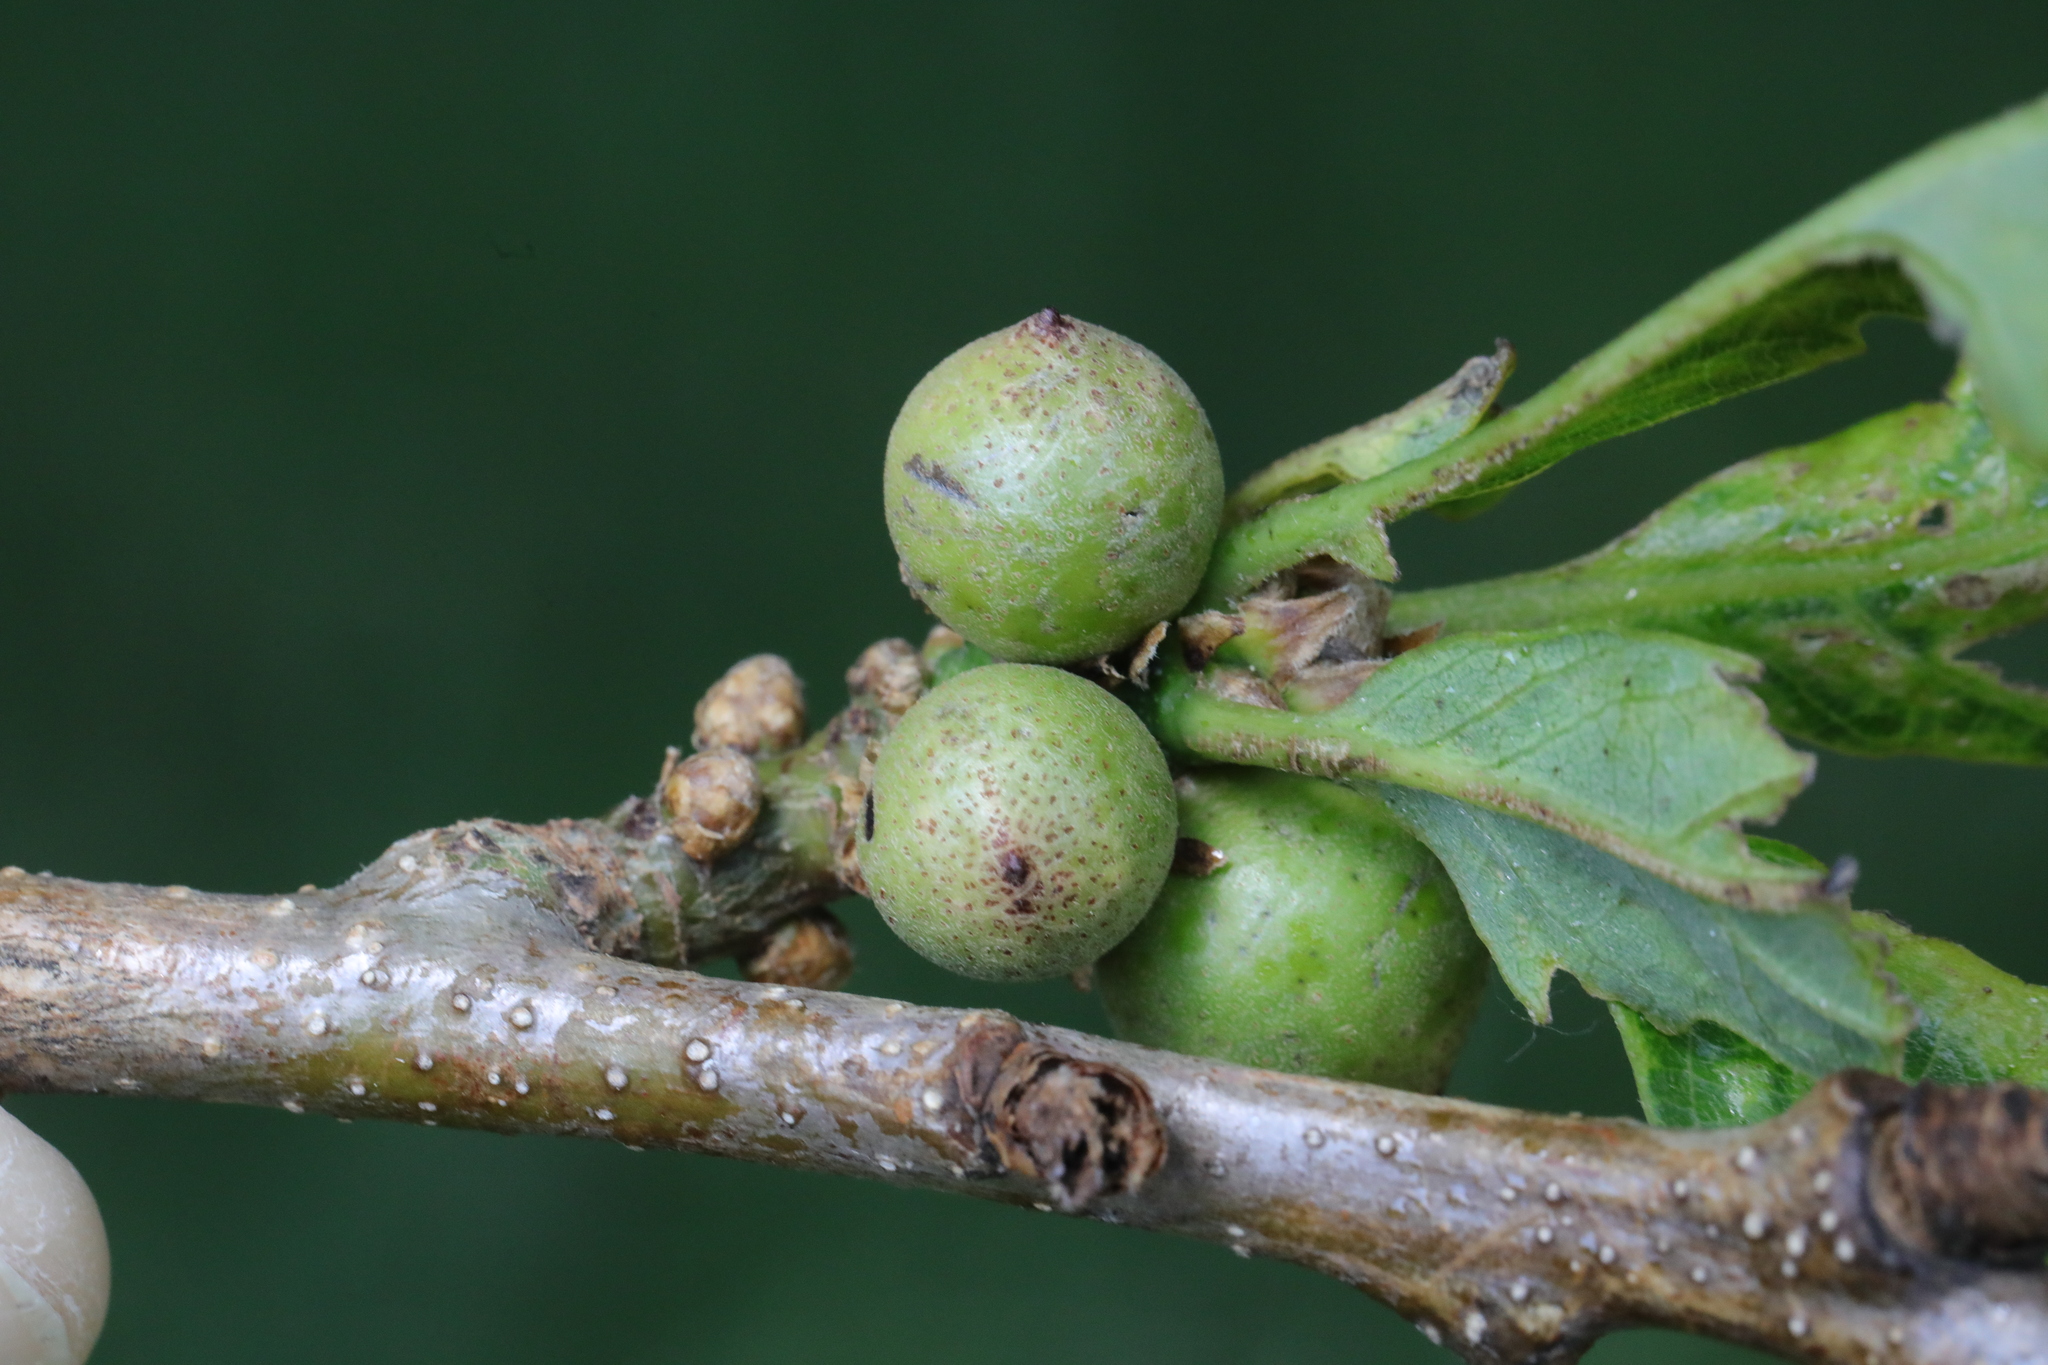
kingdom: Animalia
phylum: Arthropoda
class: Insecta
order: Hymenoptera
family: Cynipidae
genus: Andricus
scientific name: Andricus kollari
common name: Marble gall
